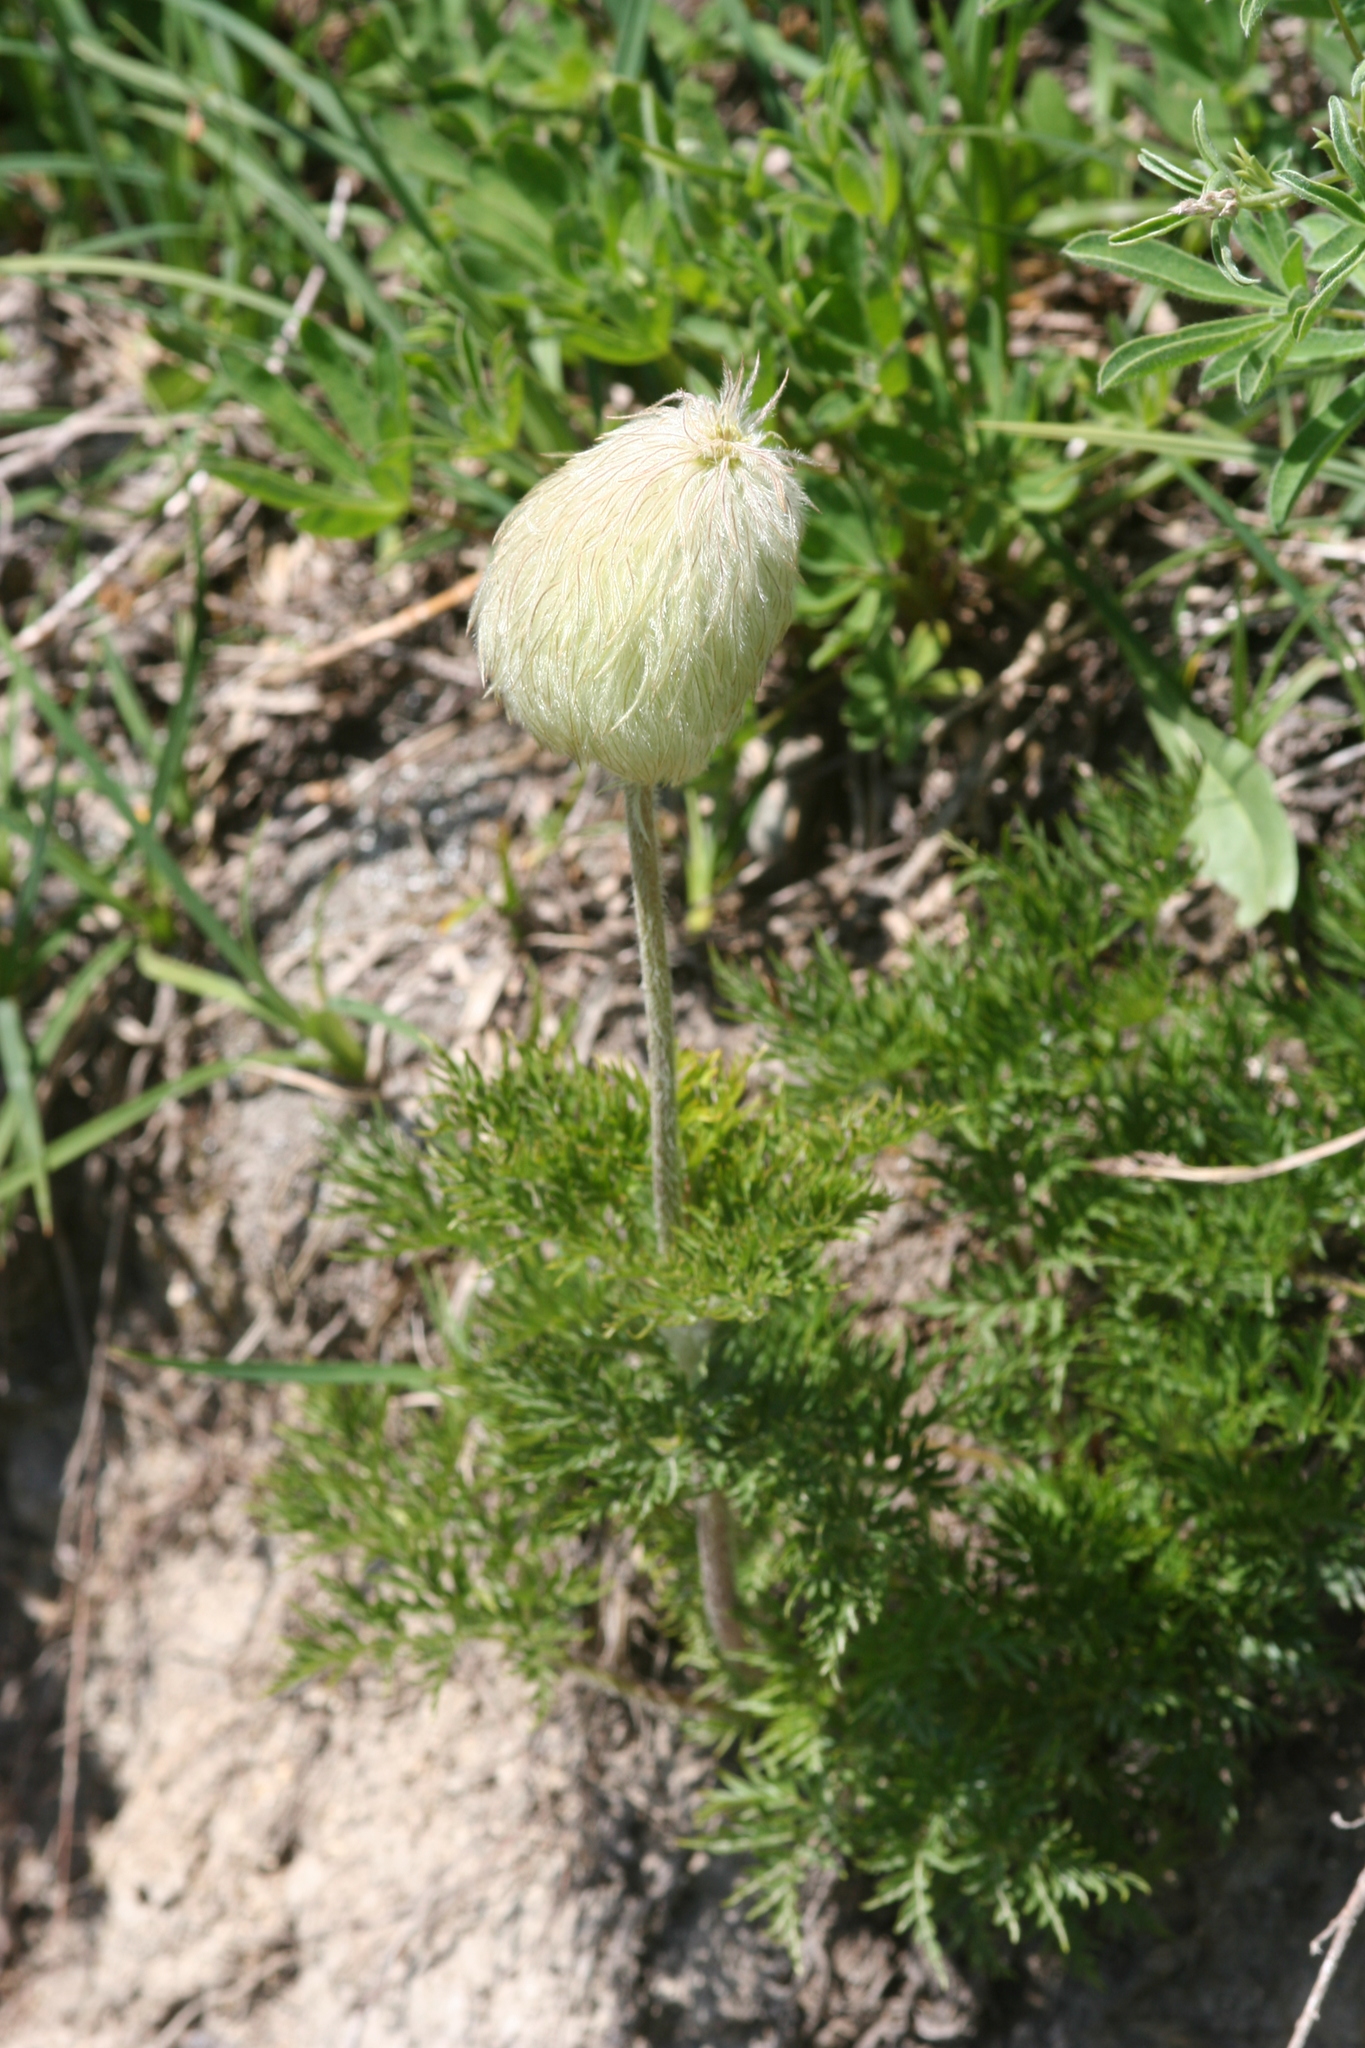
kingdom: Plantae
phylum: Tracheophyta
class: Magnoliopsida
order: Ranunculales
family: Ranunculaceae
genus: Pulsatilla
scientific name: Pulsatilla occidentalis
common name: Mountain pasqueflower
